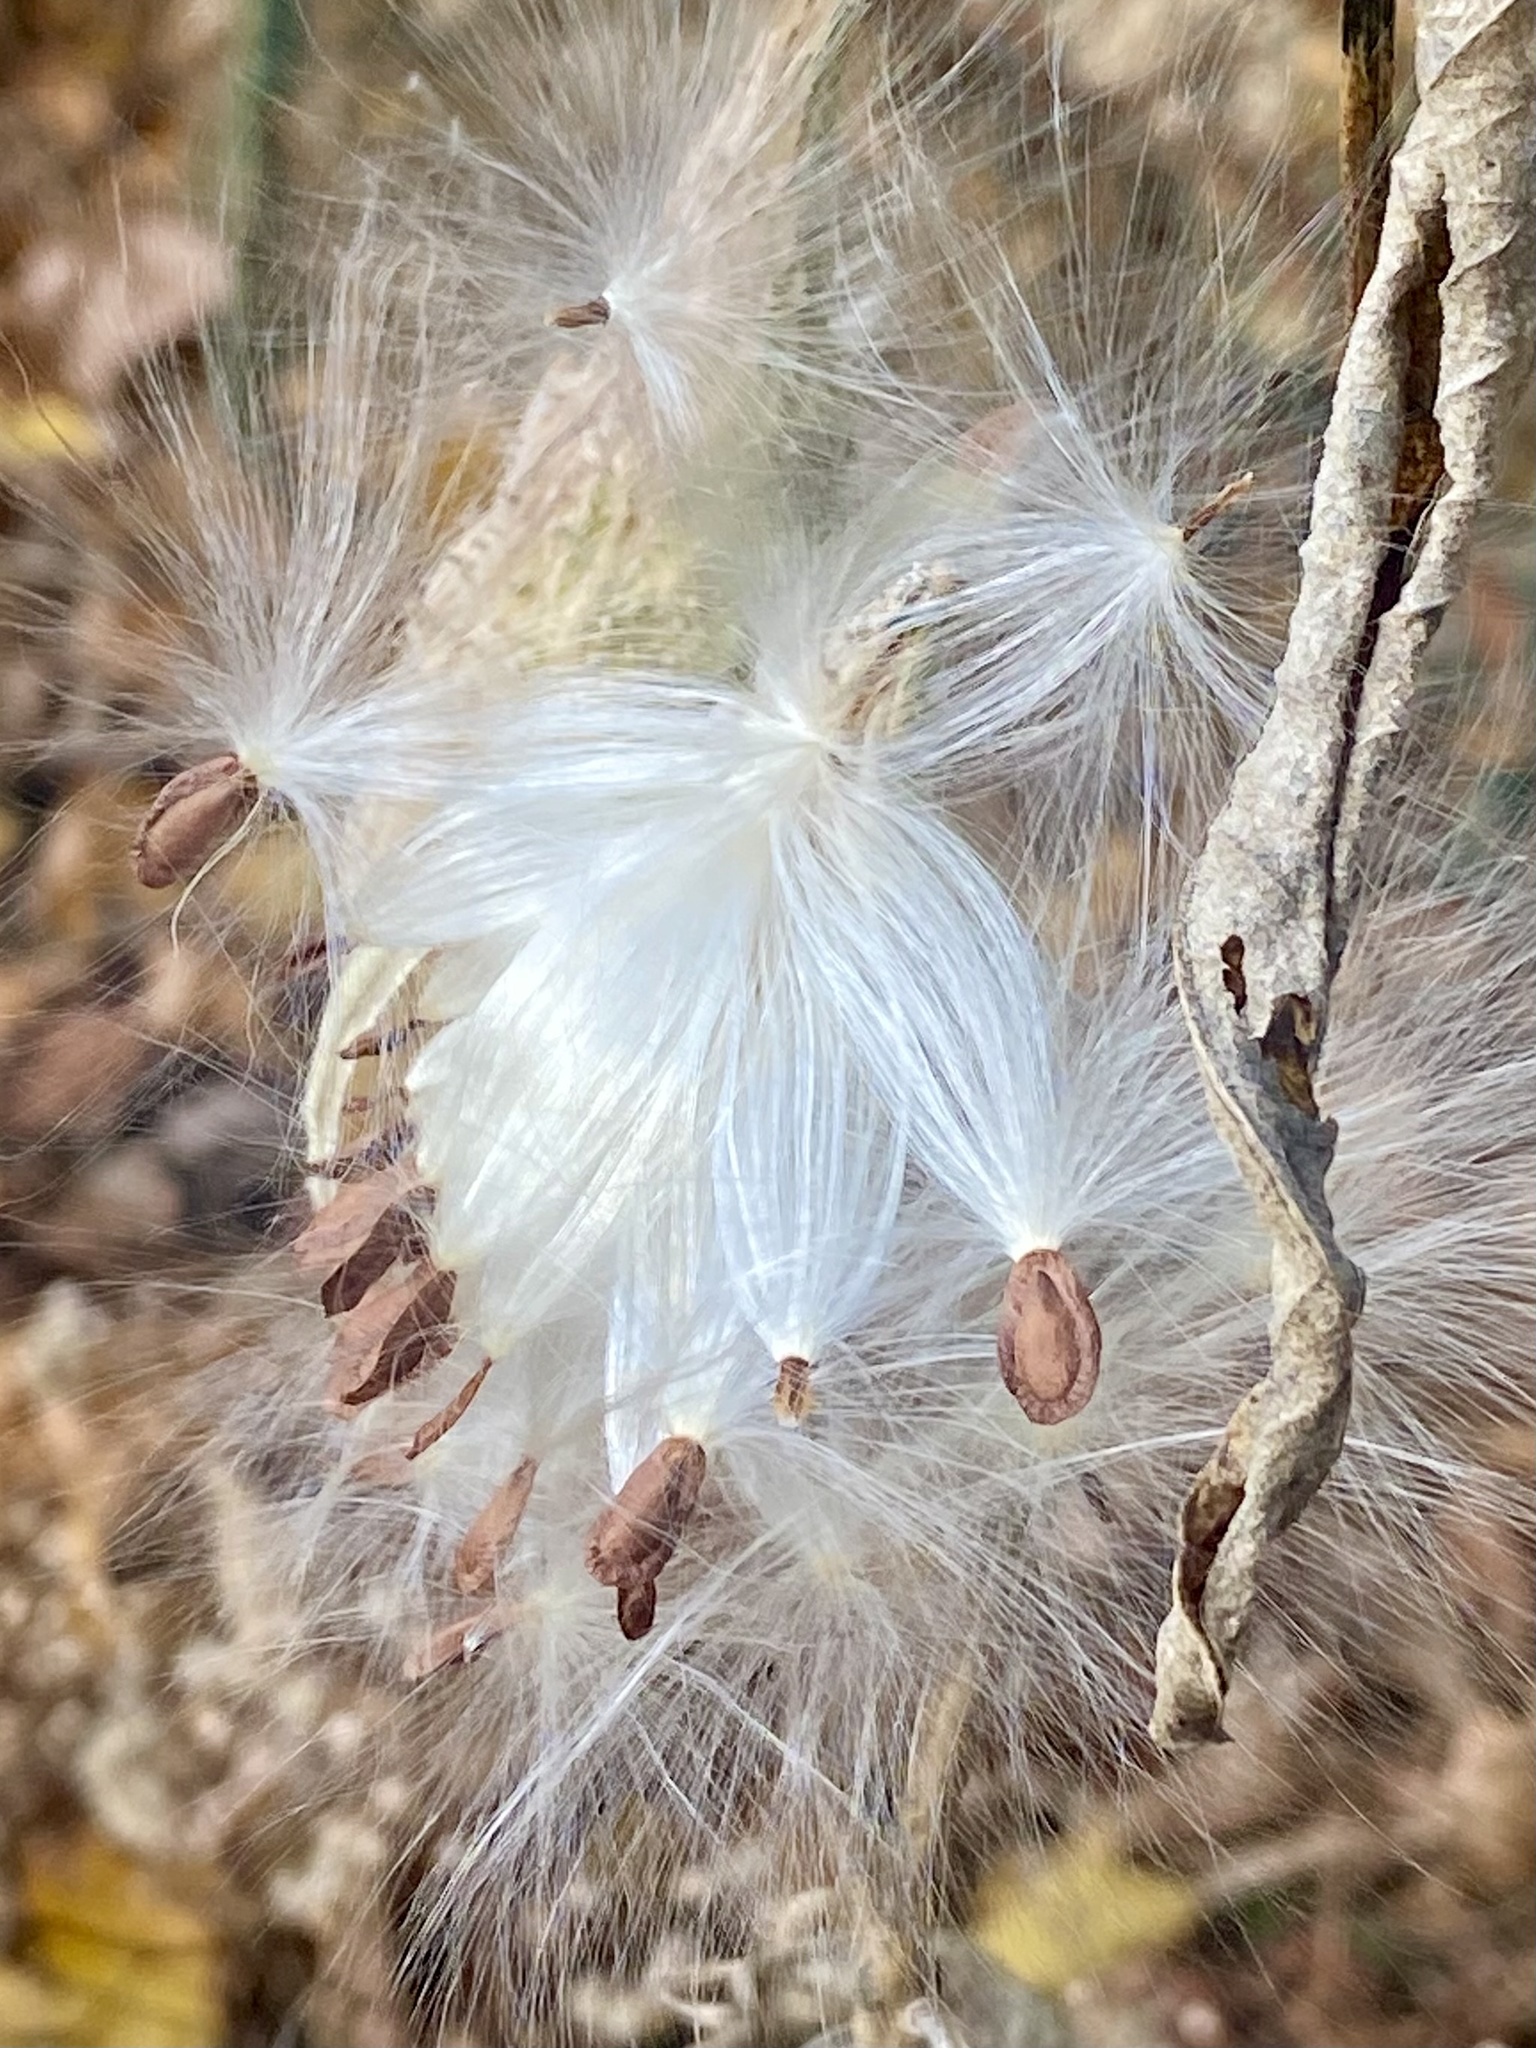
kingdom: Plantae
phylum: Tracheophyta
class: Magnoliopsida
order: Gentianales
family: Apocynaceae
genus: Asclepias
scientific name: Asclepias syriaca
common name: Common milkweed
